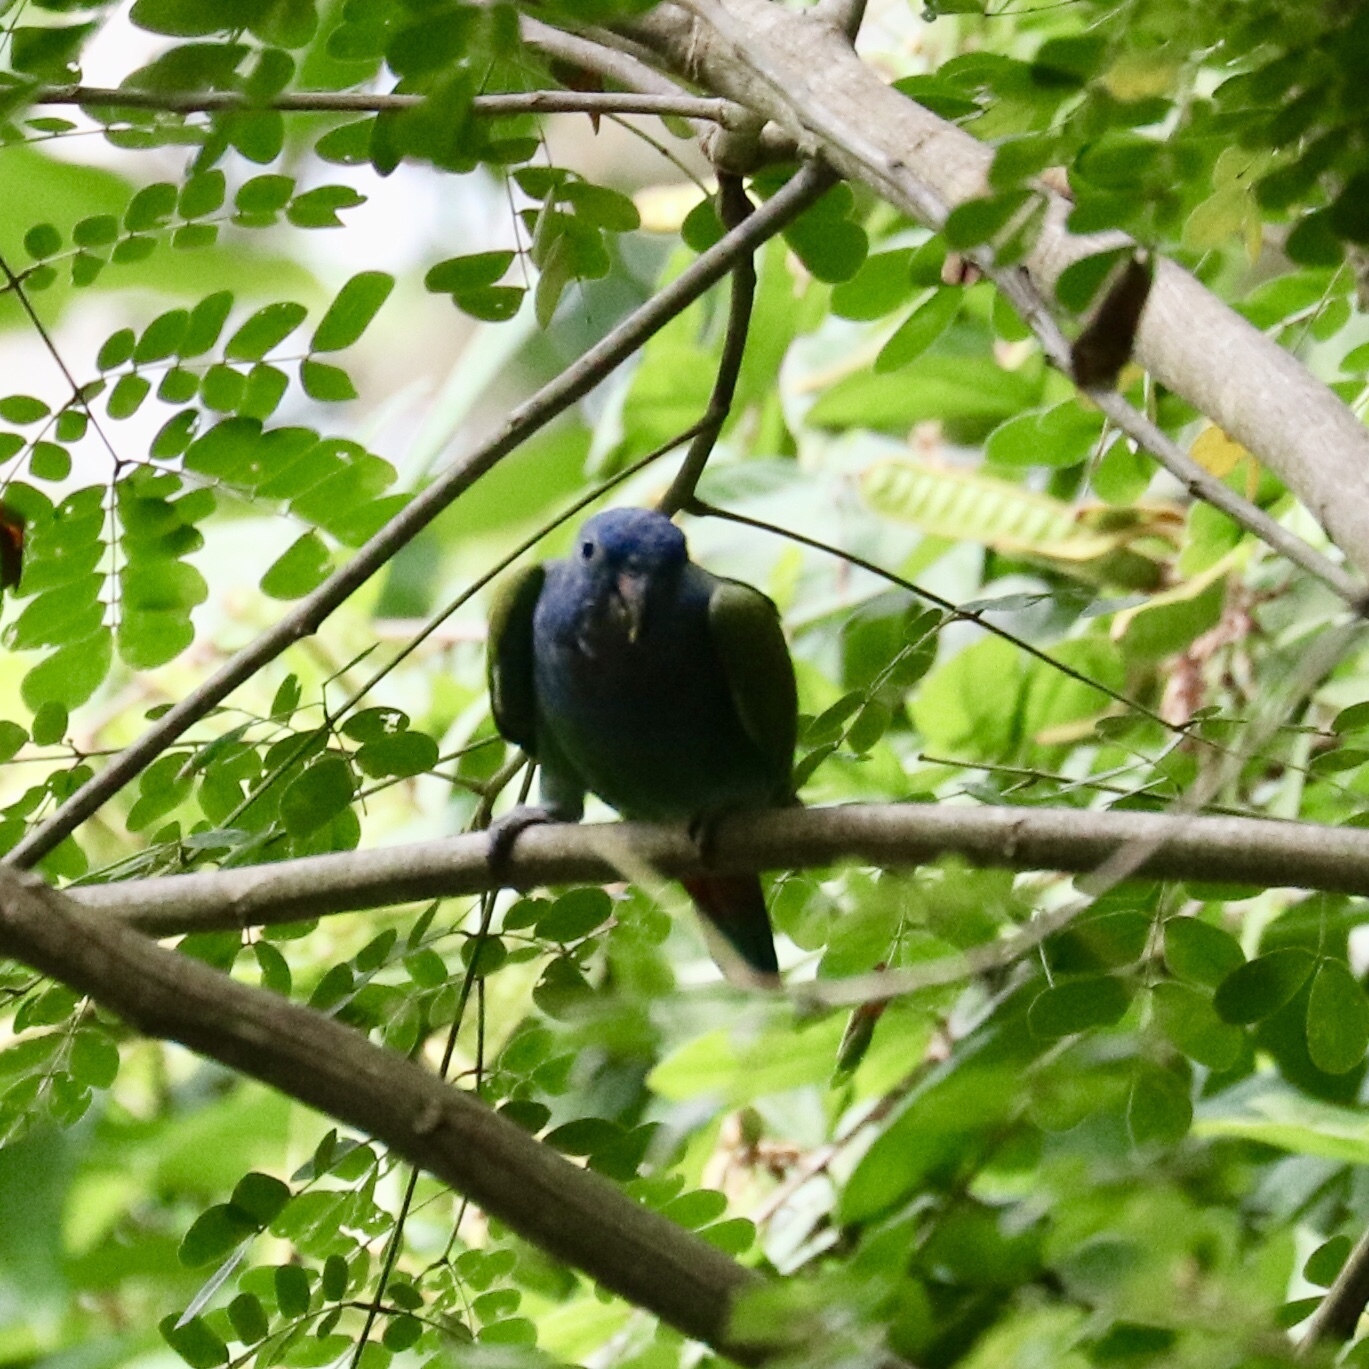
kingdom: Animalia
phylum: Chordata
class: Aves
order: Psittaciformes
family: Psittacidae
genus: Pionus
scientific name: Pionus menstruus
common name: Blue-headed parrot
